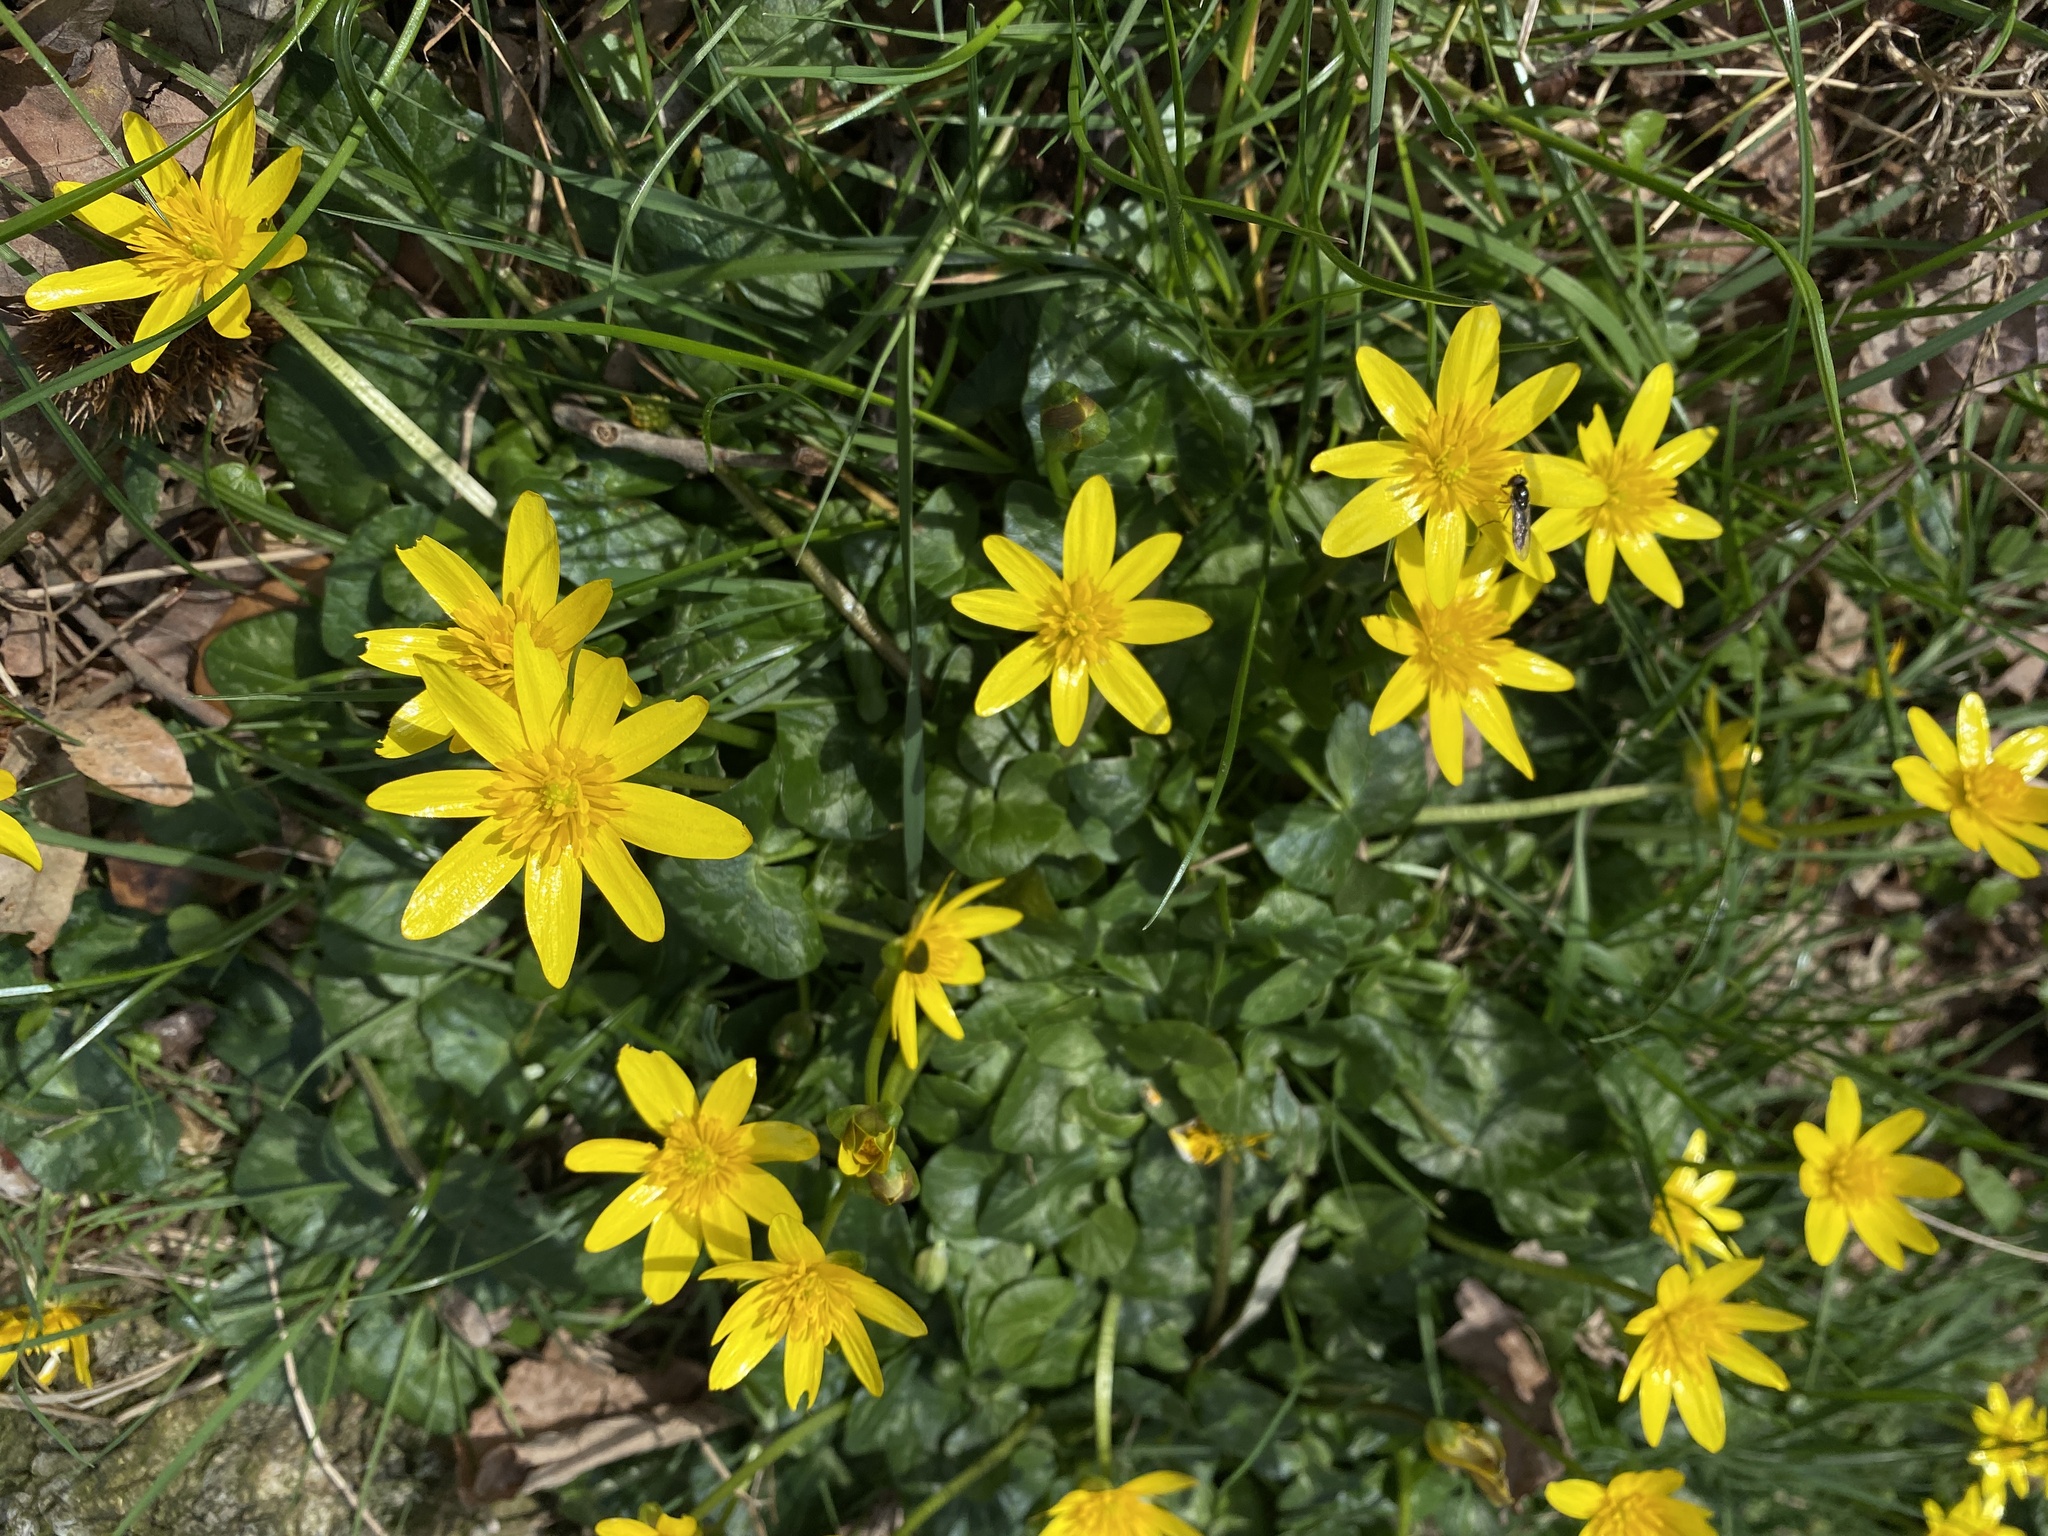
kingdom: Plantae
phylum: Tracheophyta
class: Magnoliopsida
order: Ranunculales
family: Ranunculaceae
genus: Ficaria
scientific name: Ficaria verna
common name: Lesser celandine
